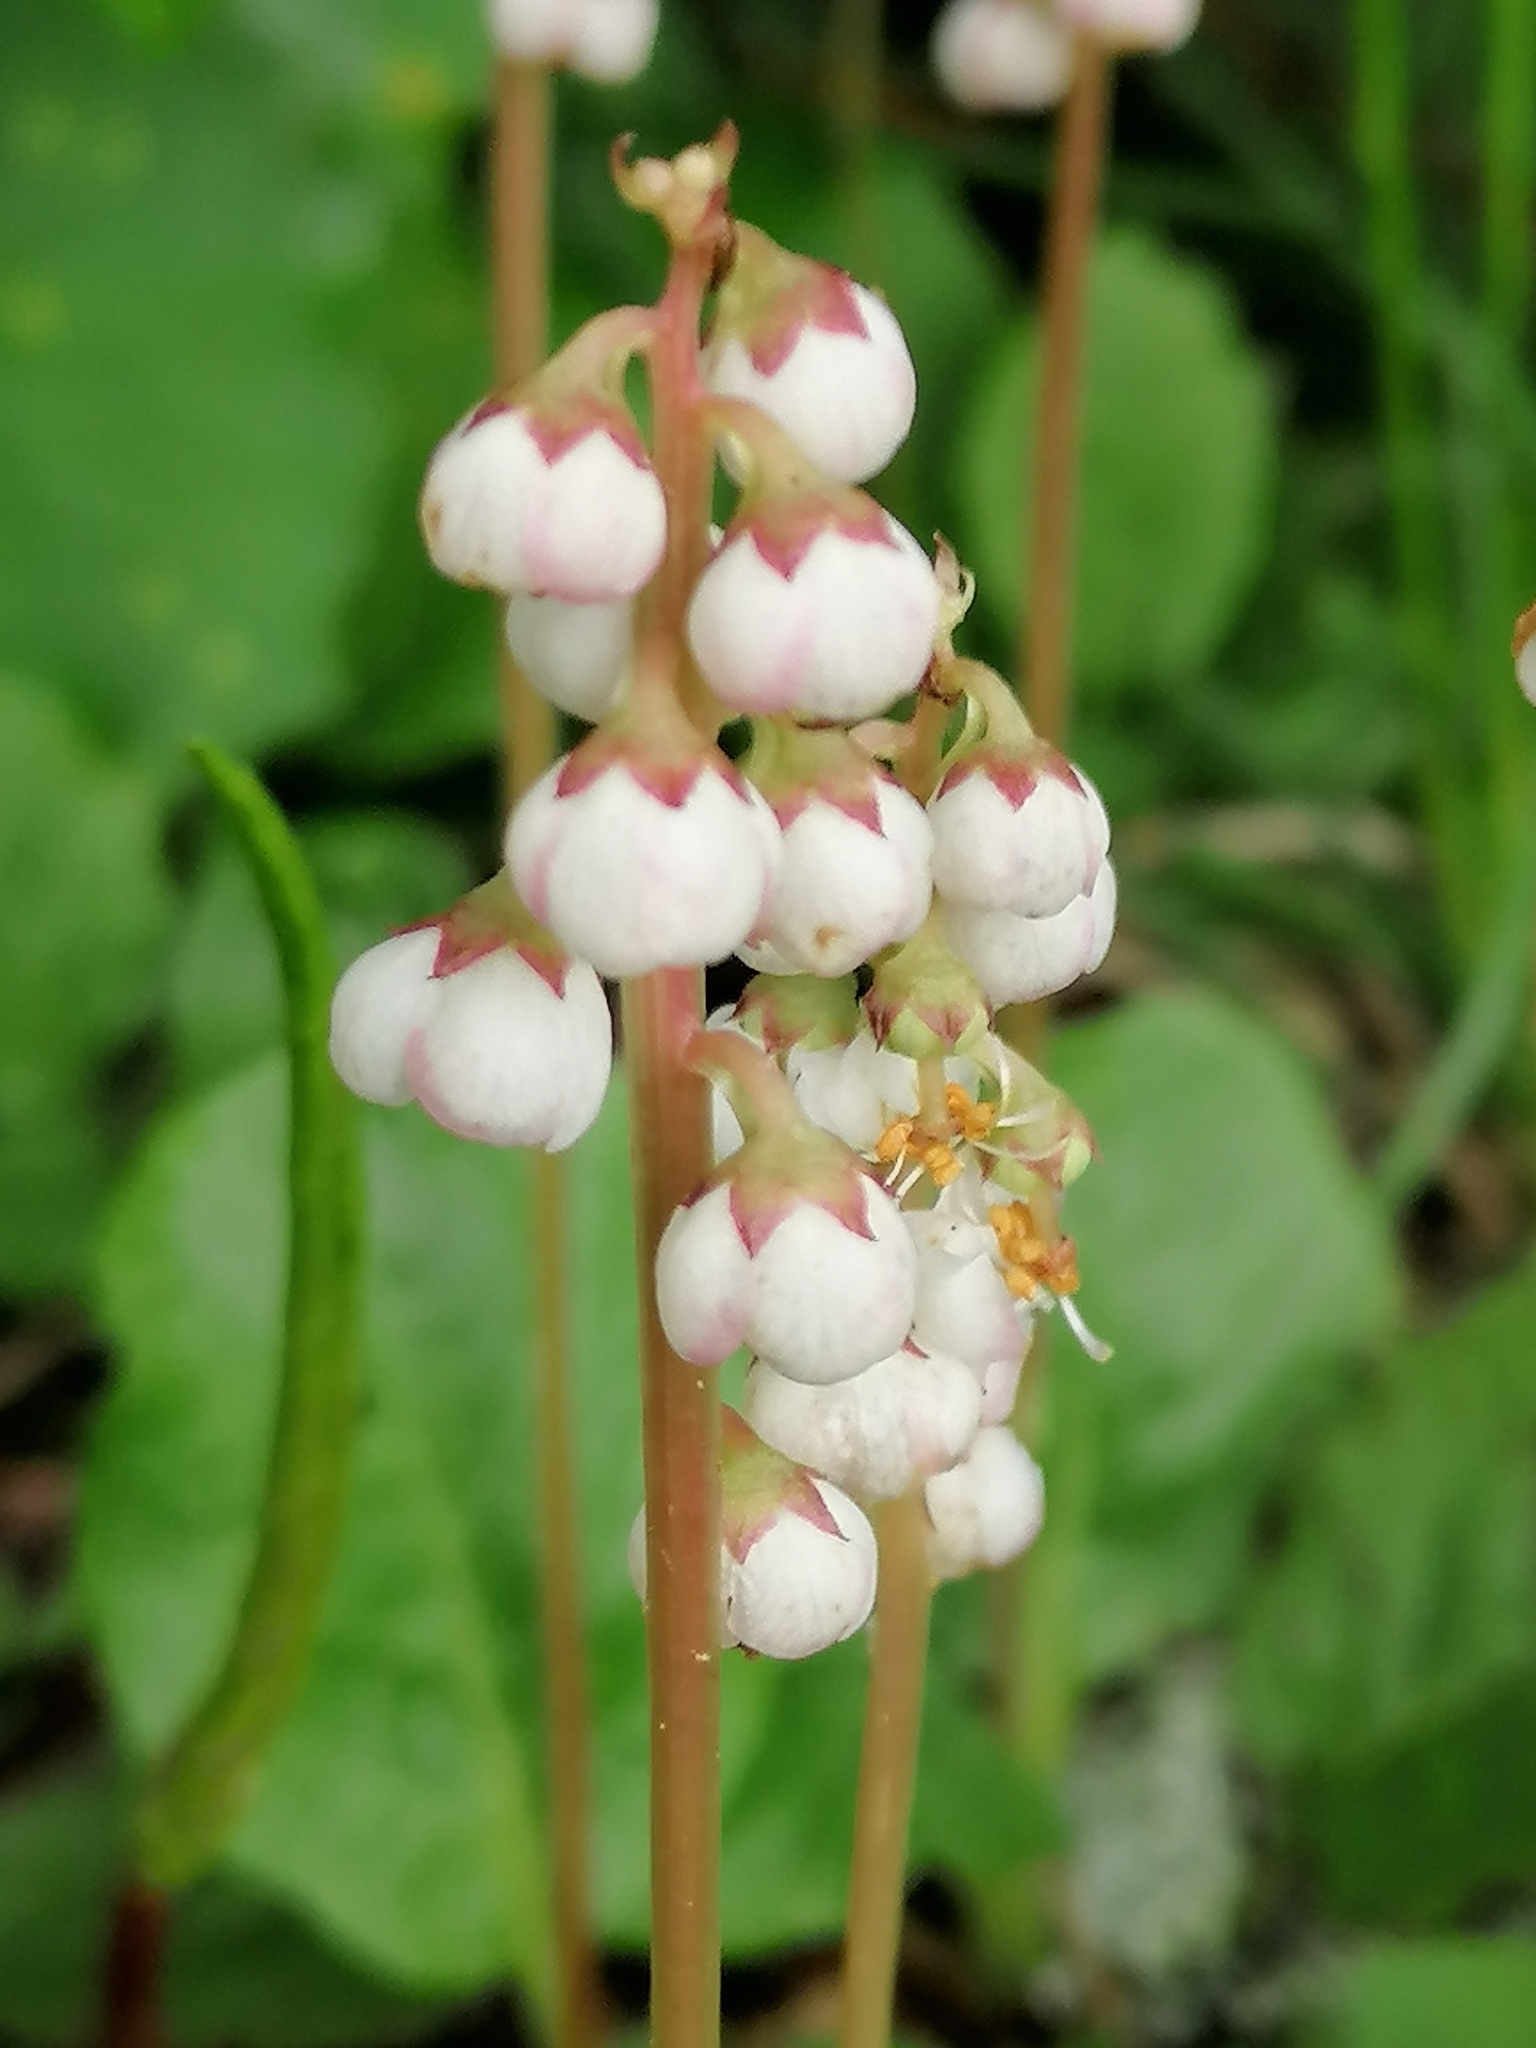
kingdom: Plantae
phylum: Tracheophyta
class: Magnoliopsida
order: Ericales
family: Ericaceae
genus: Pyrola
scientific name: Pyrola minor
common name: Common wintergreen
